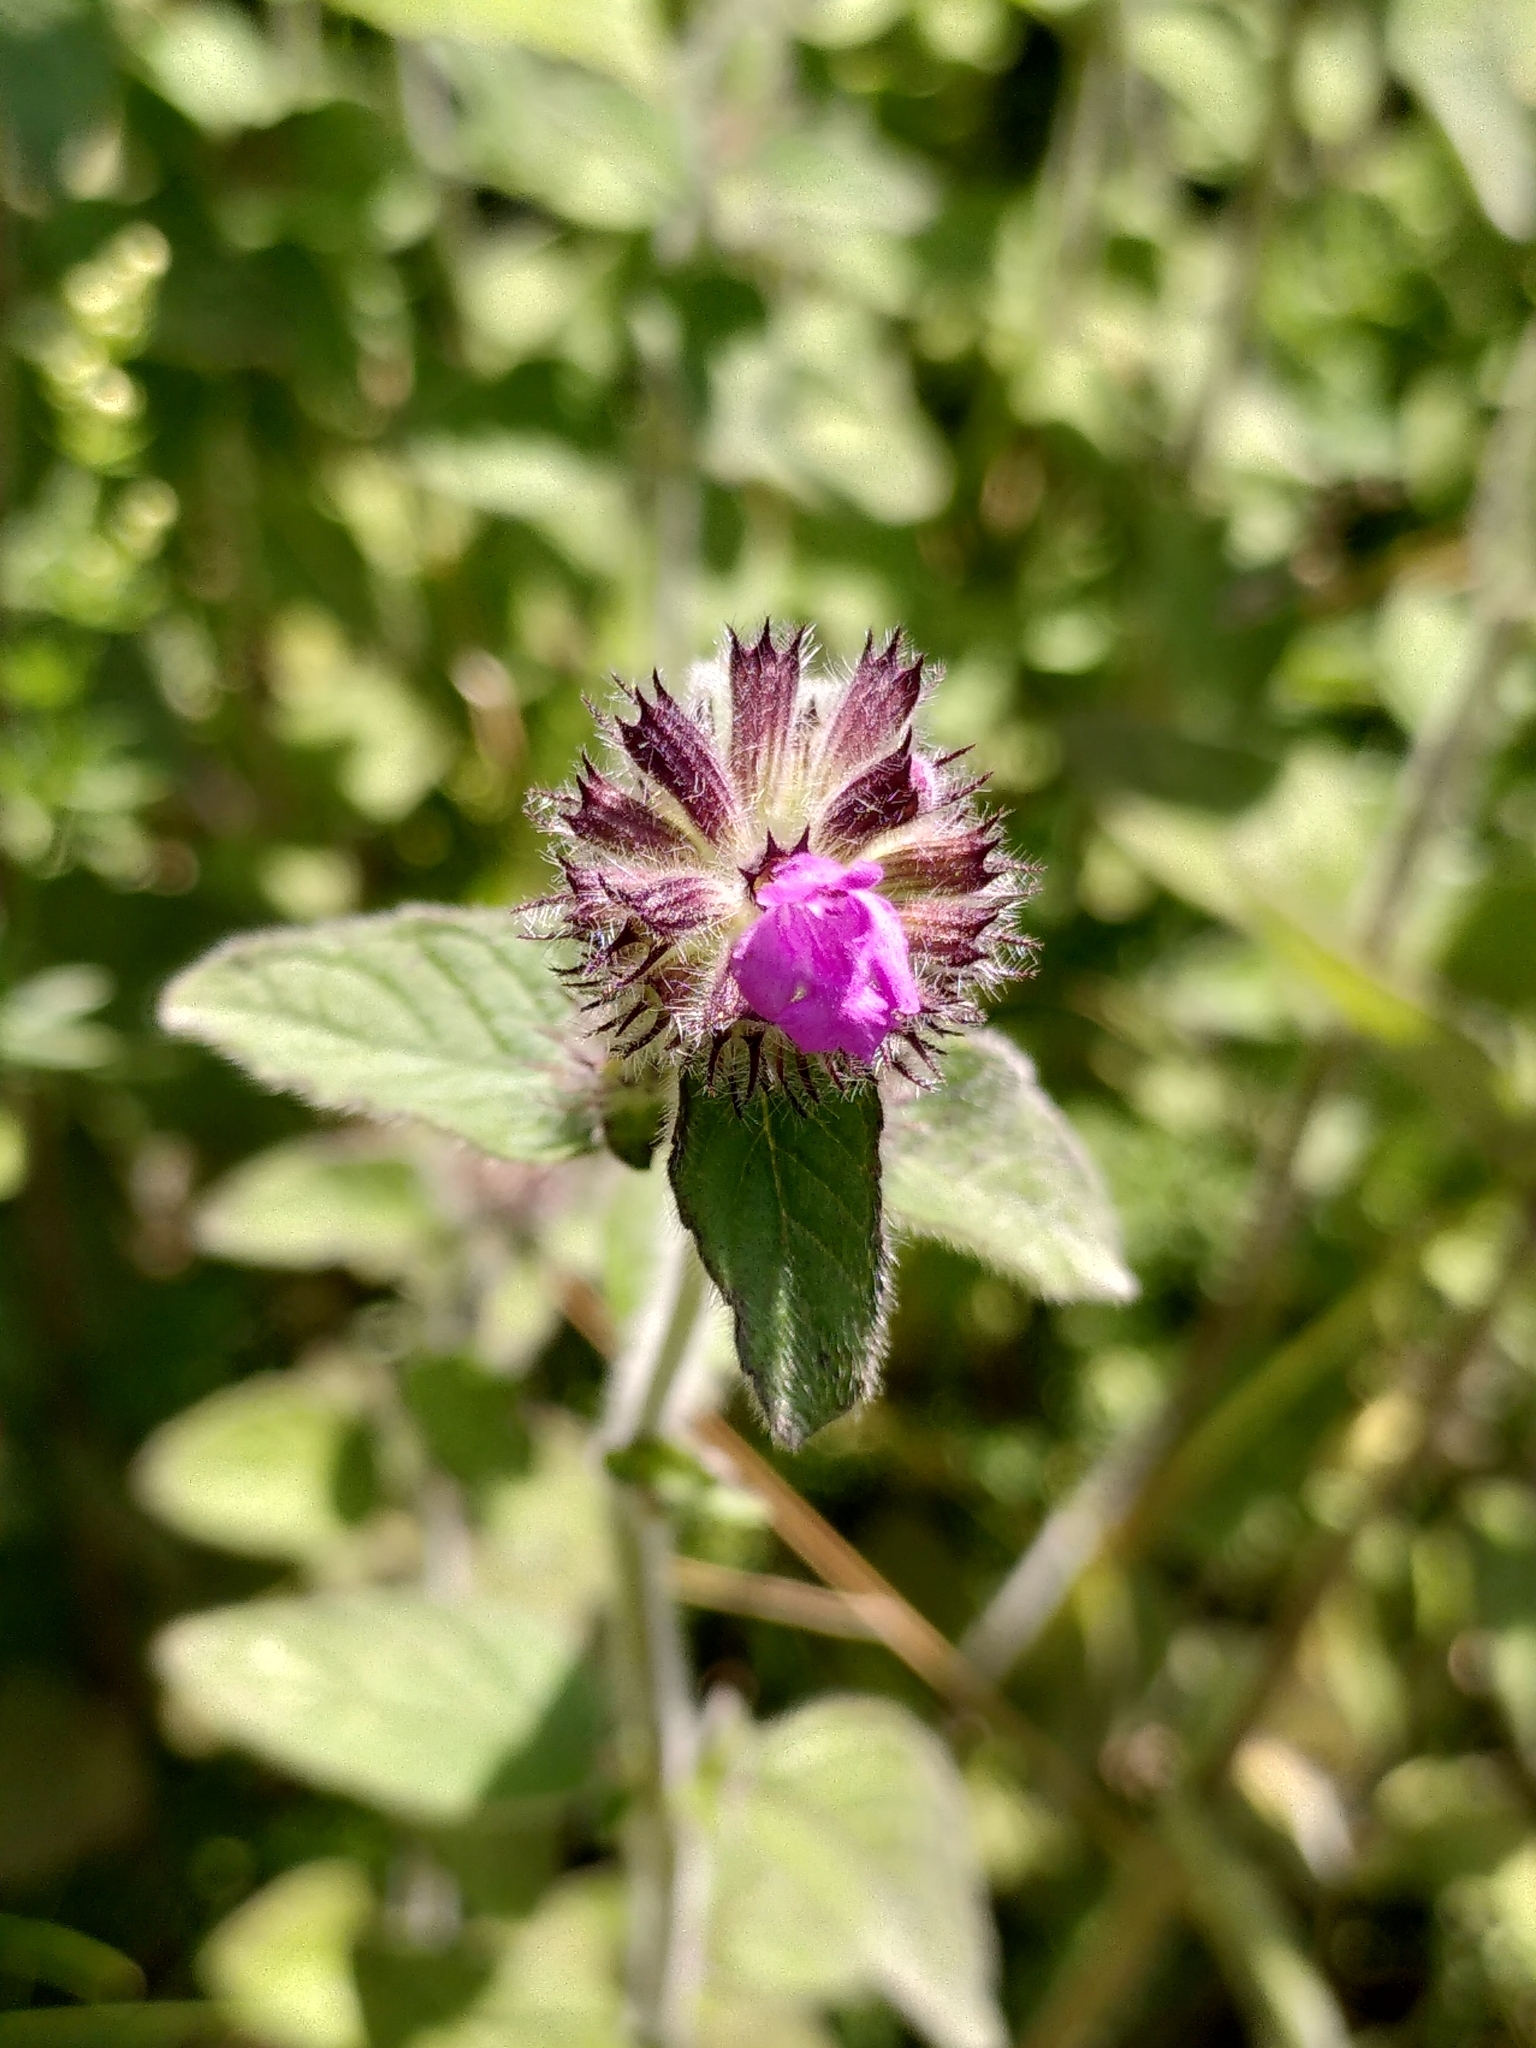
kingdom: Plantae
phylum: Tracheophyta
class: Magnoliopsida
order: Lamiales
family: Lamiaceae
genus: Clinopodium
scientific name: Clinopodium vulgare
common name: Wild basil
